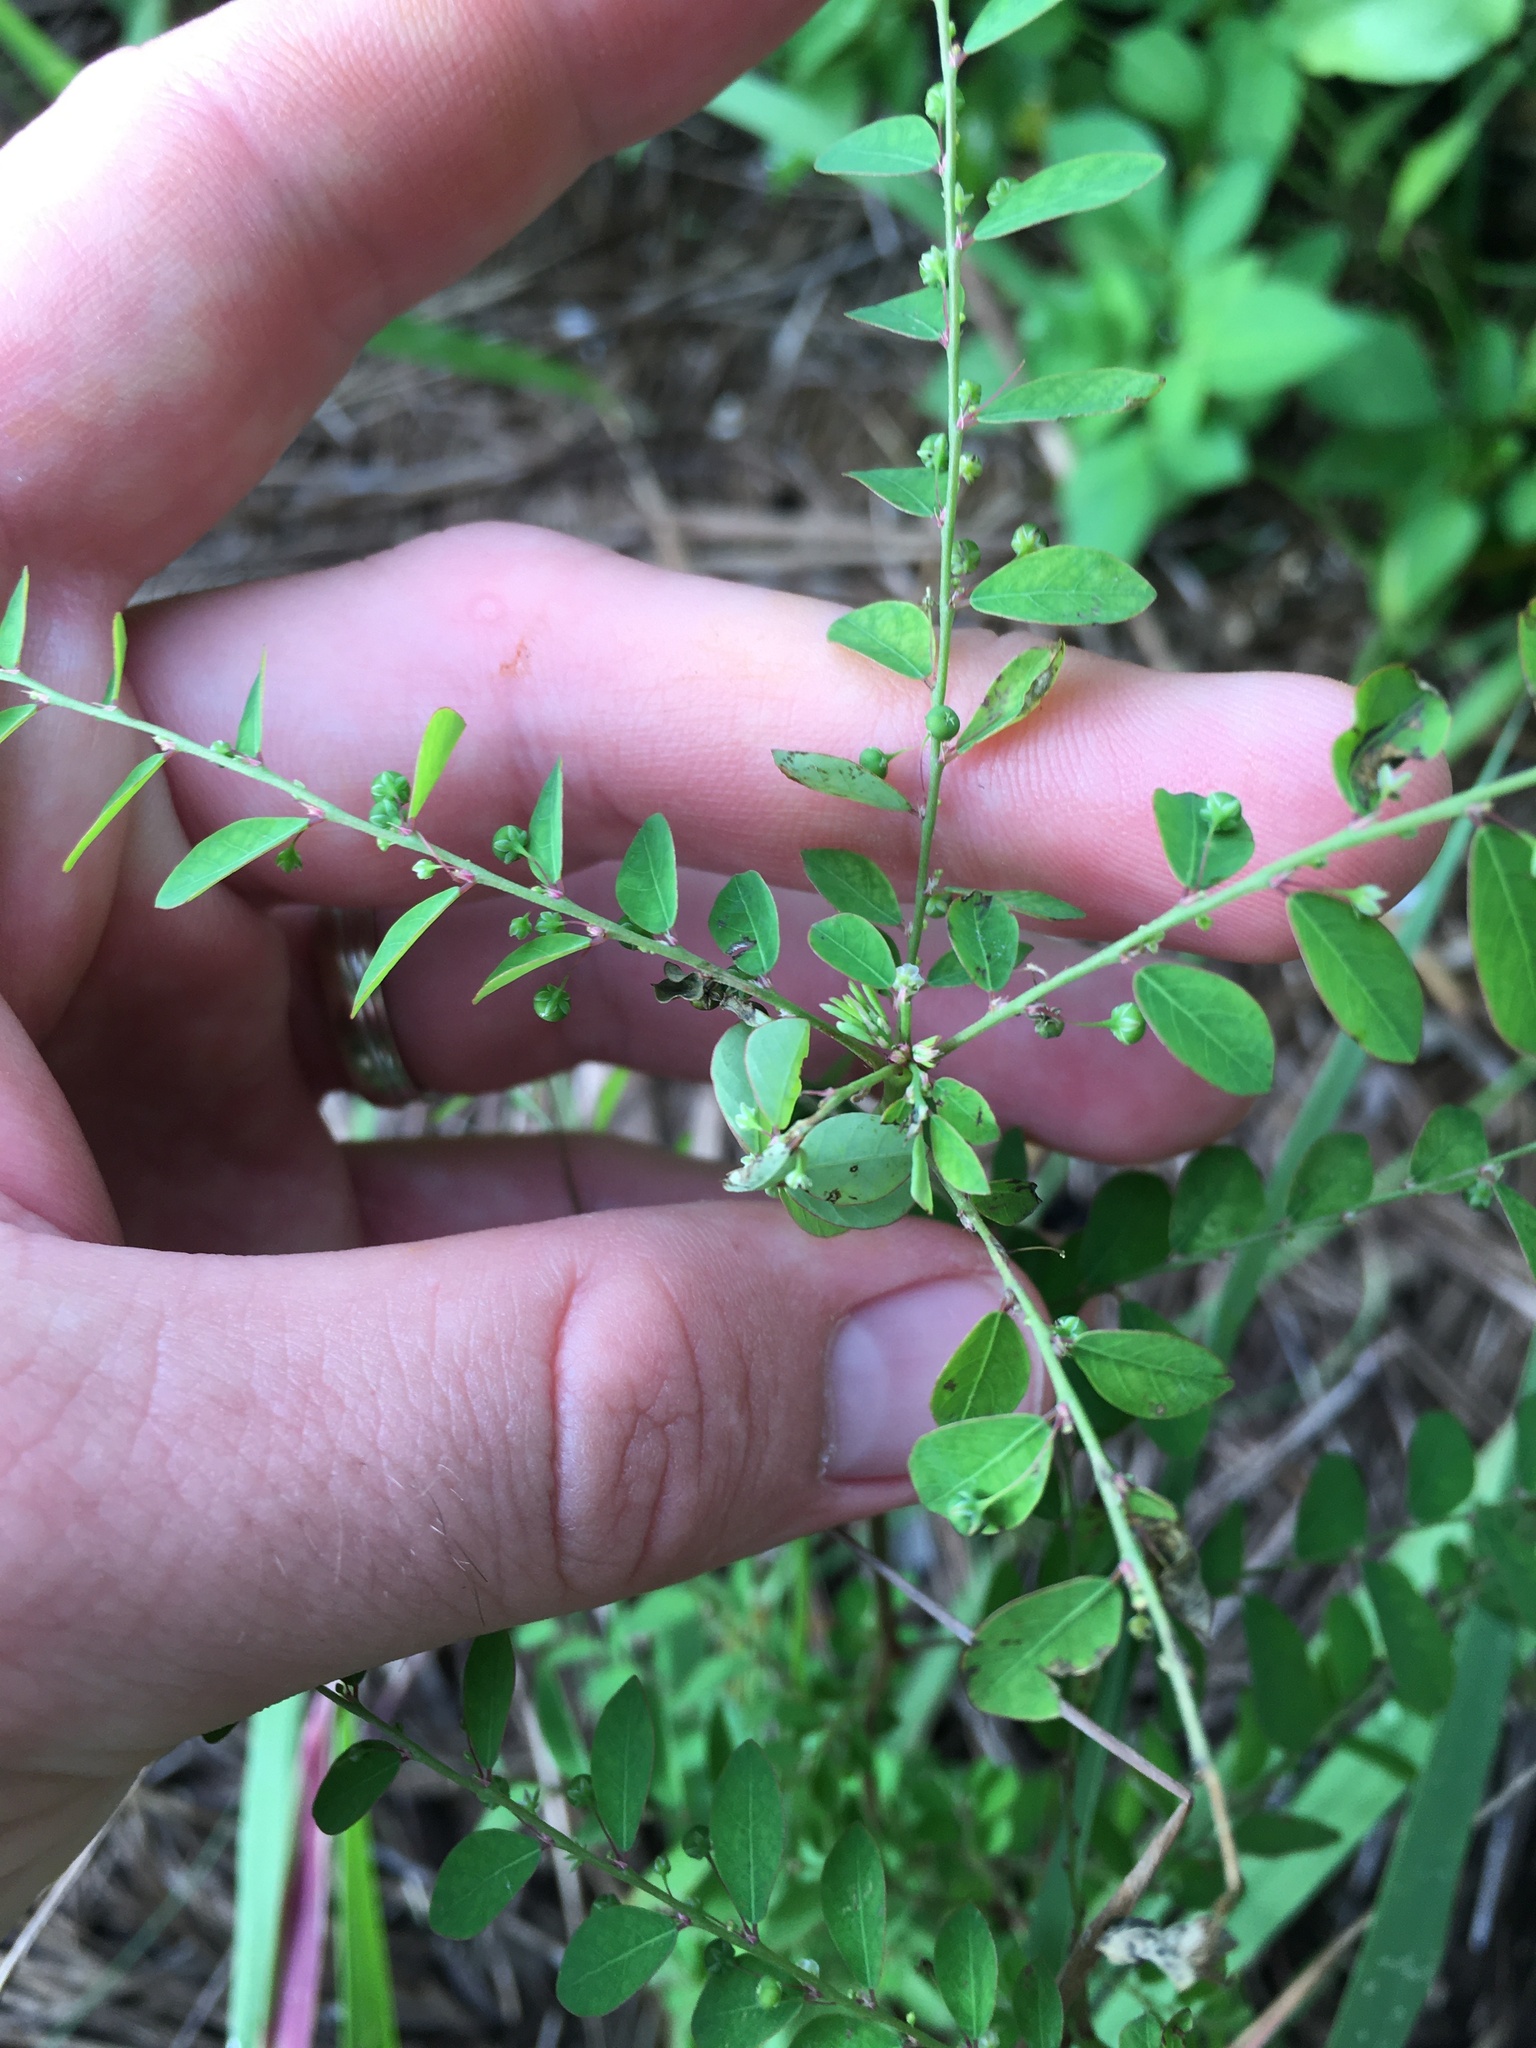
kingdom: Plantae
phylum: Tracheophyta
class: Magnoliopsida
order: Malpighiales
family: Phyllanthaceae
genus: Phyllanthus
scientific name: Phyllanthus tenellus
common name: Mascarene island leaf-flower
